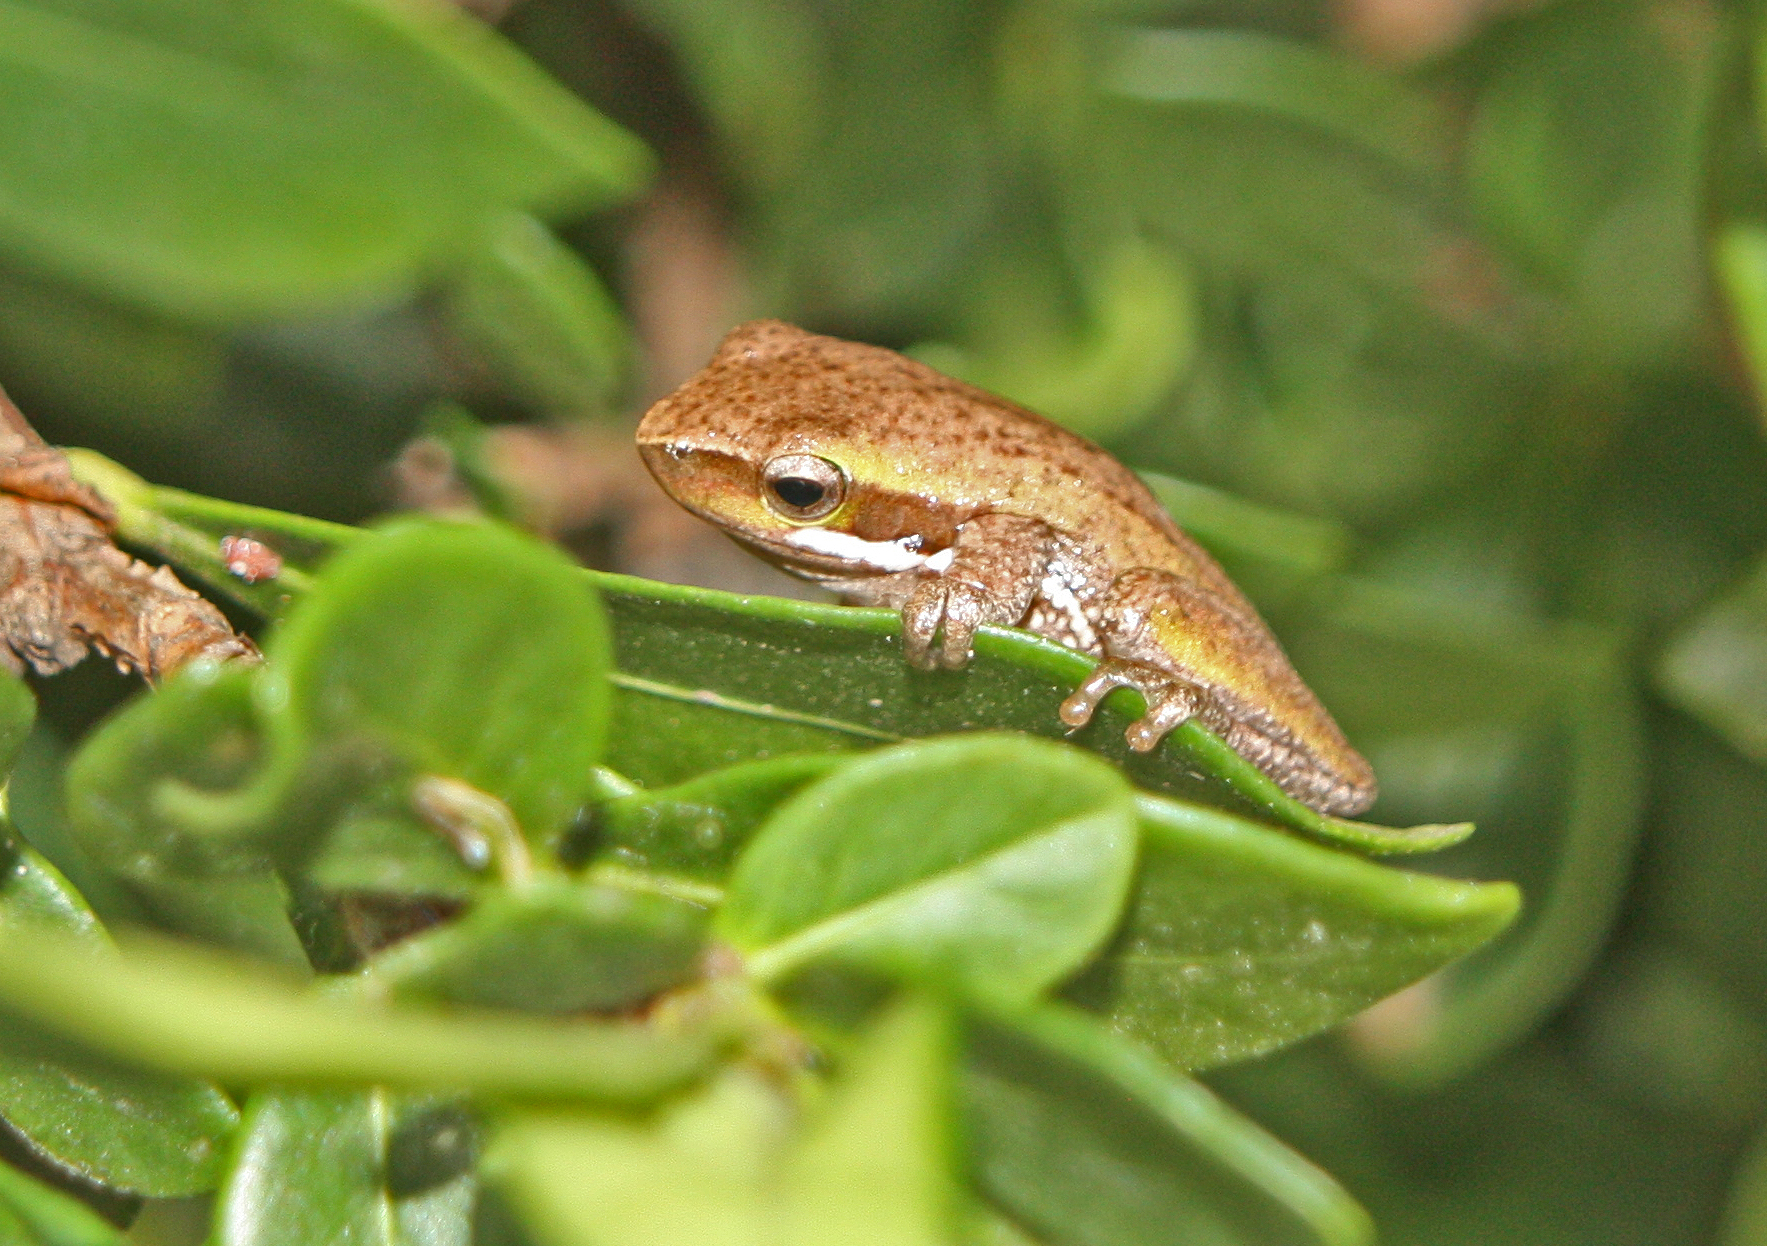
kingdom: Animalia
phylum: Chordata
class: Amphibia
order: Anura
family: Pelodryadidae
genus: Litoria
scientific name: Litoria fallax
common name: Eastern dwarf treefrog
